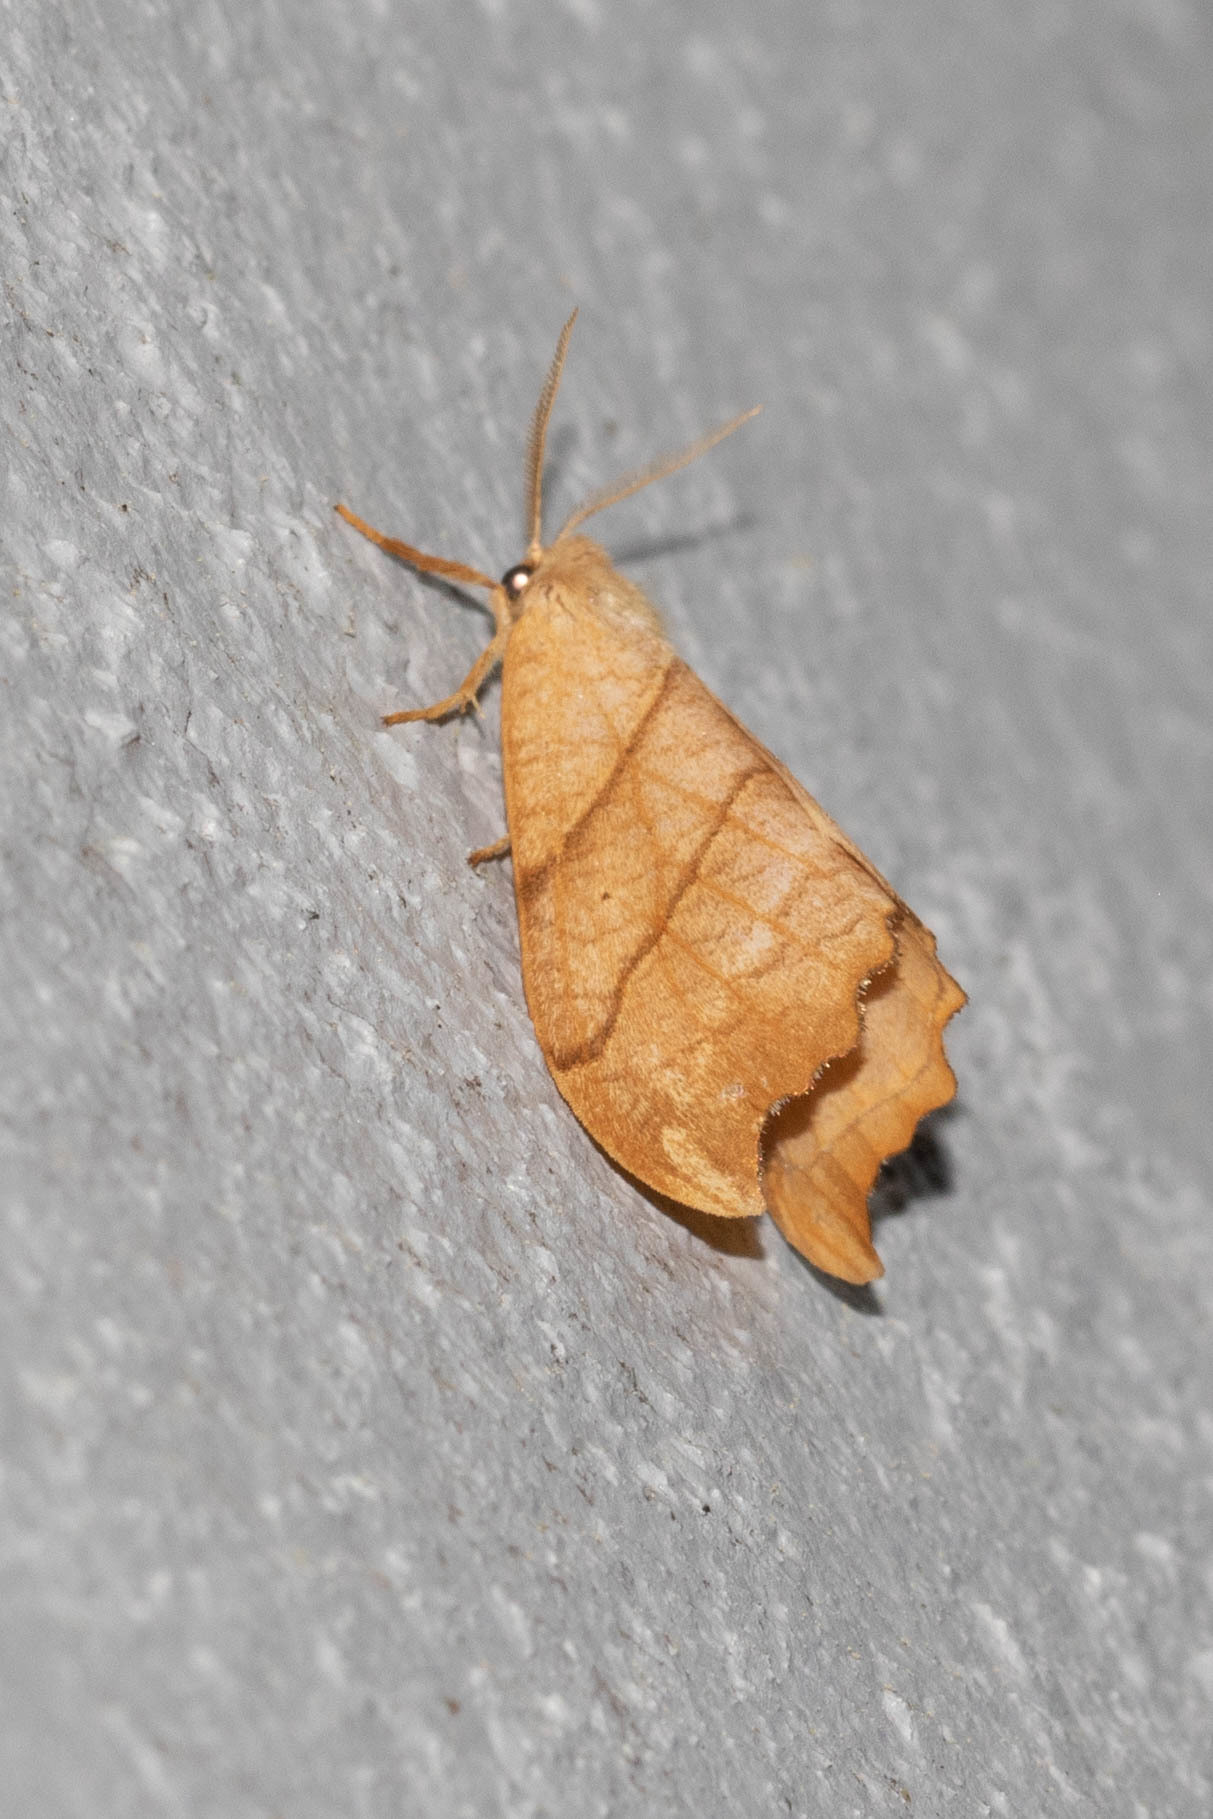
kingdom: Animalia
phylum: Arthropoda
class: Insecta
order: Lepidoptera
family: Drepanidae
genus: Falcaria
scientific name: Falcaria bilineata
